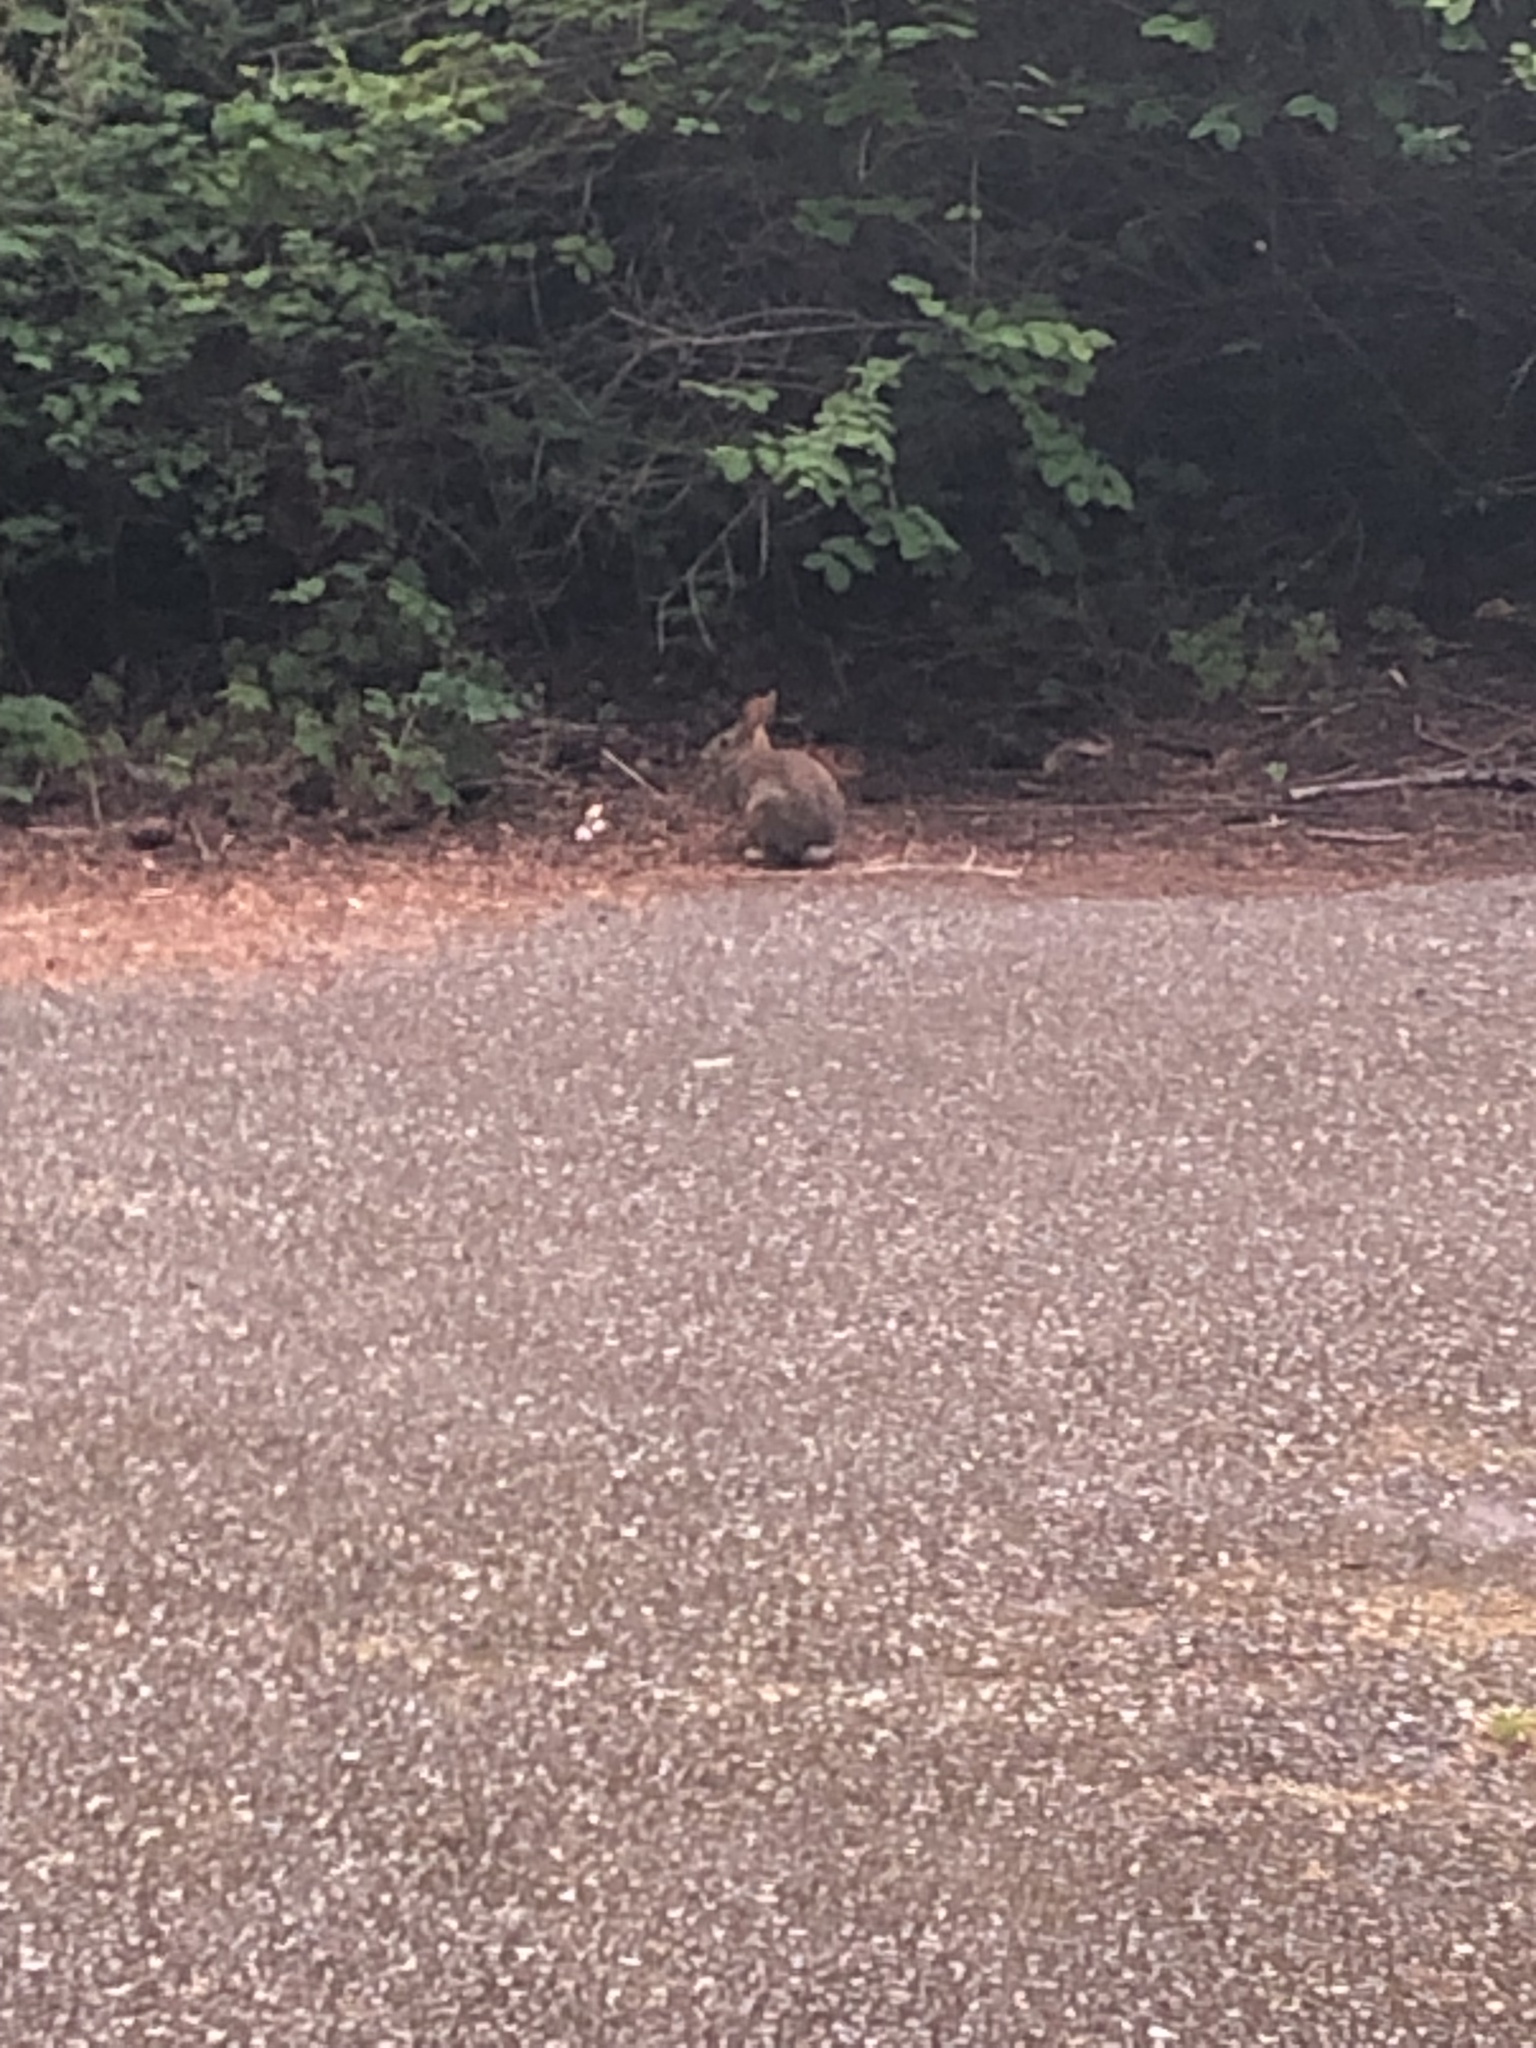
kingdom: Animalia
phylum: Chordata
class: Mammalia
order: Lagomorpha
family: Leporidae
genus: Sylvilagus
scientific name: Sylvilagus floridanus
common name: Eastern cottontail
